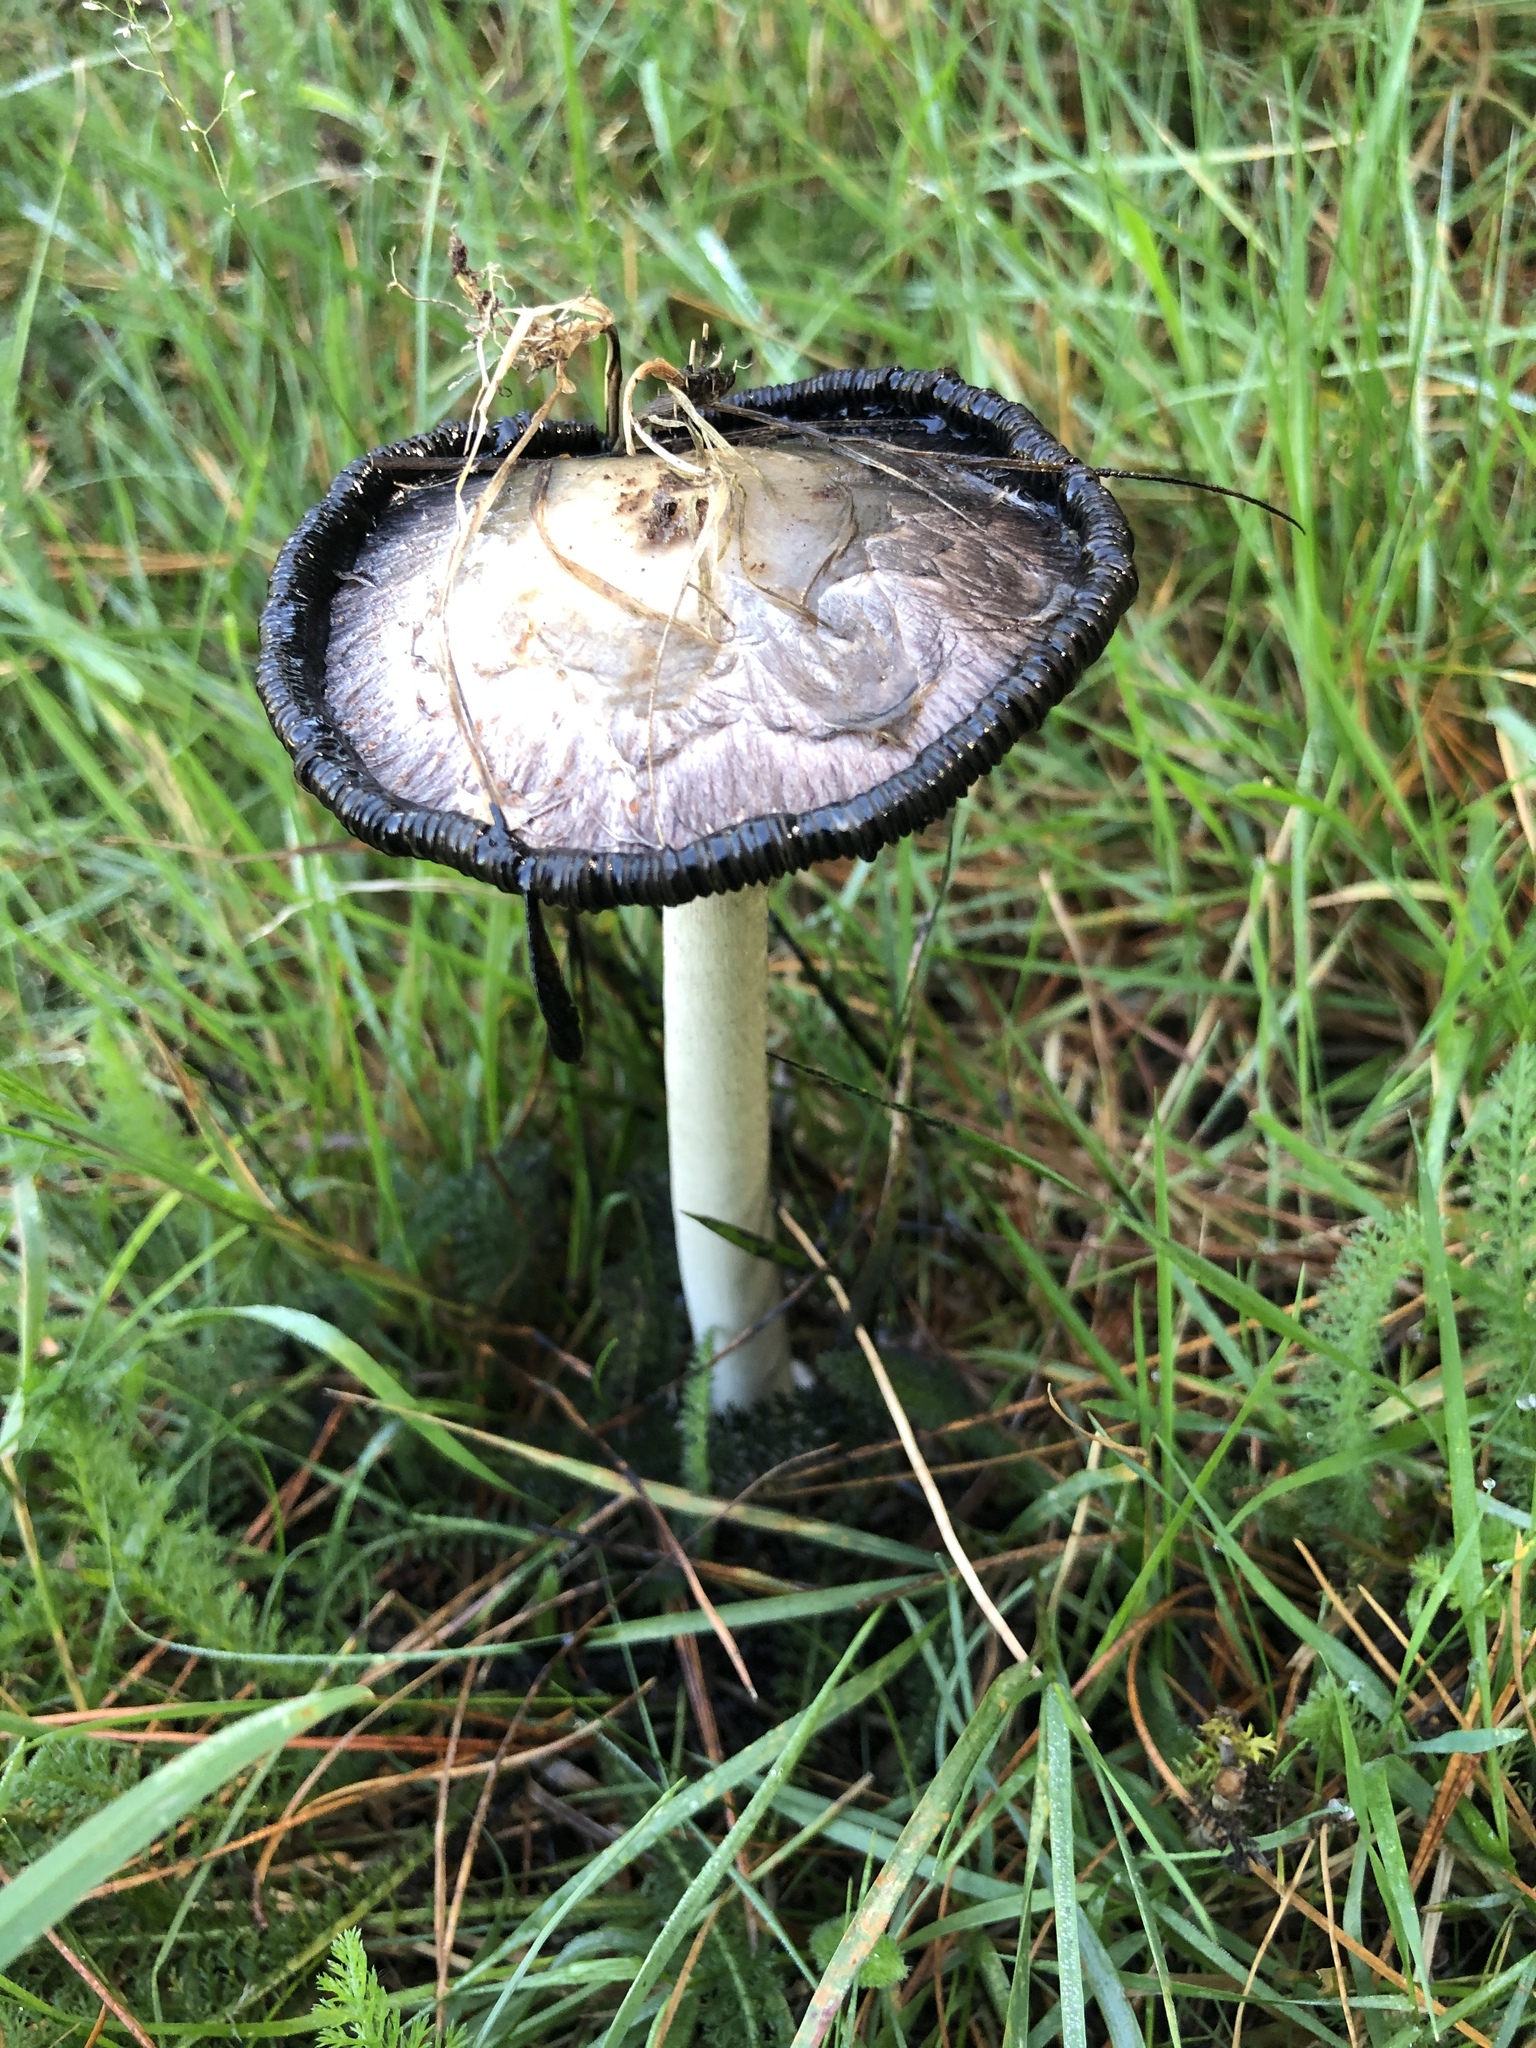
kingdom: Fungi
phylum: Basidiomycota
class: Agaricomycetes
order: Agaricales
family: Agaricaceae
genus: Coprinus
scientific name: Coprinus comatus
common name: Lawyer's wig
